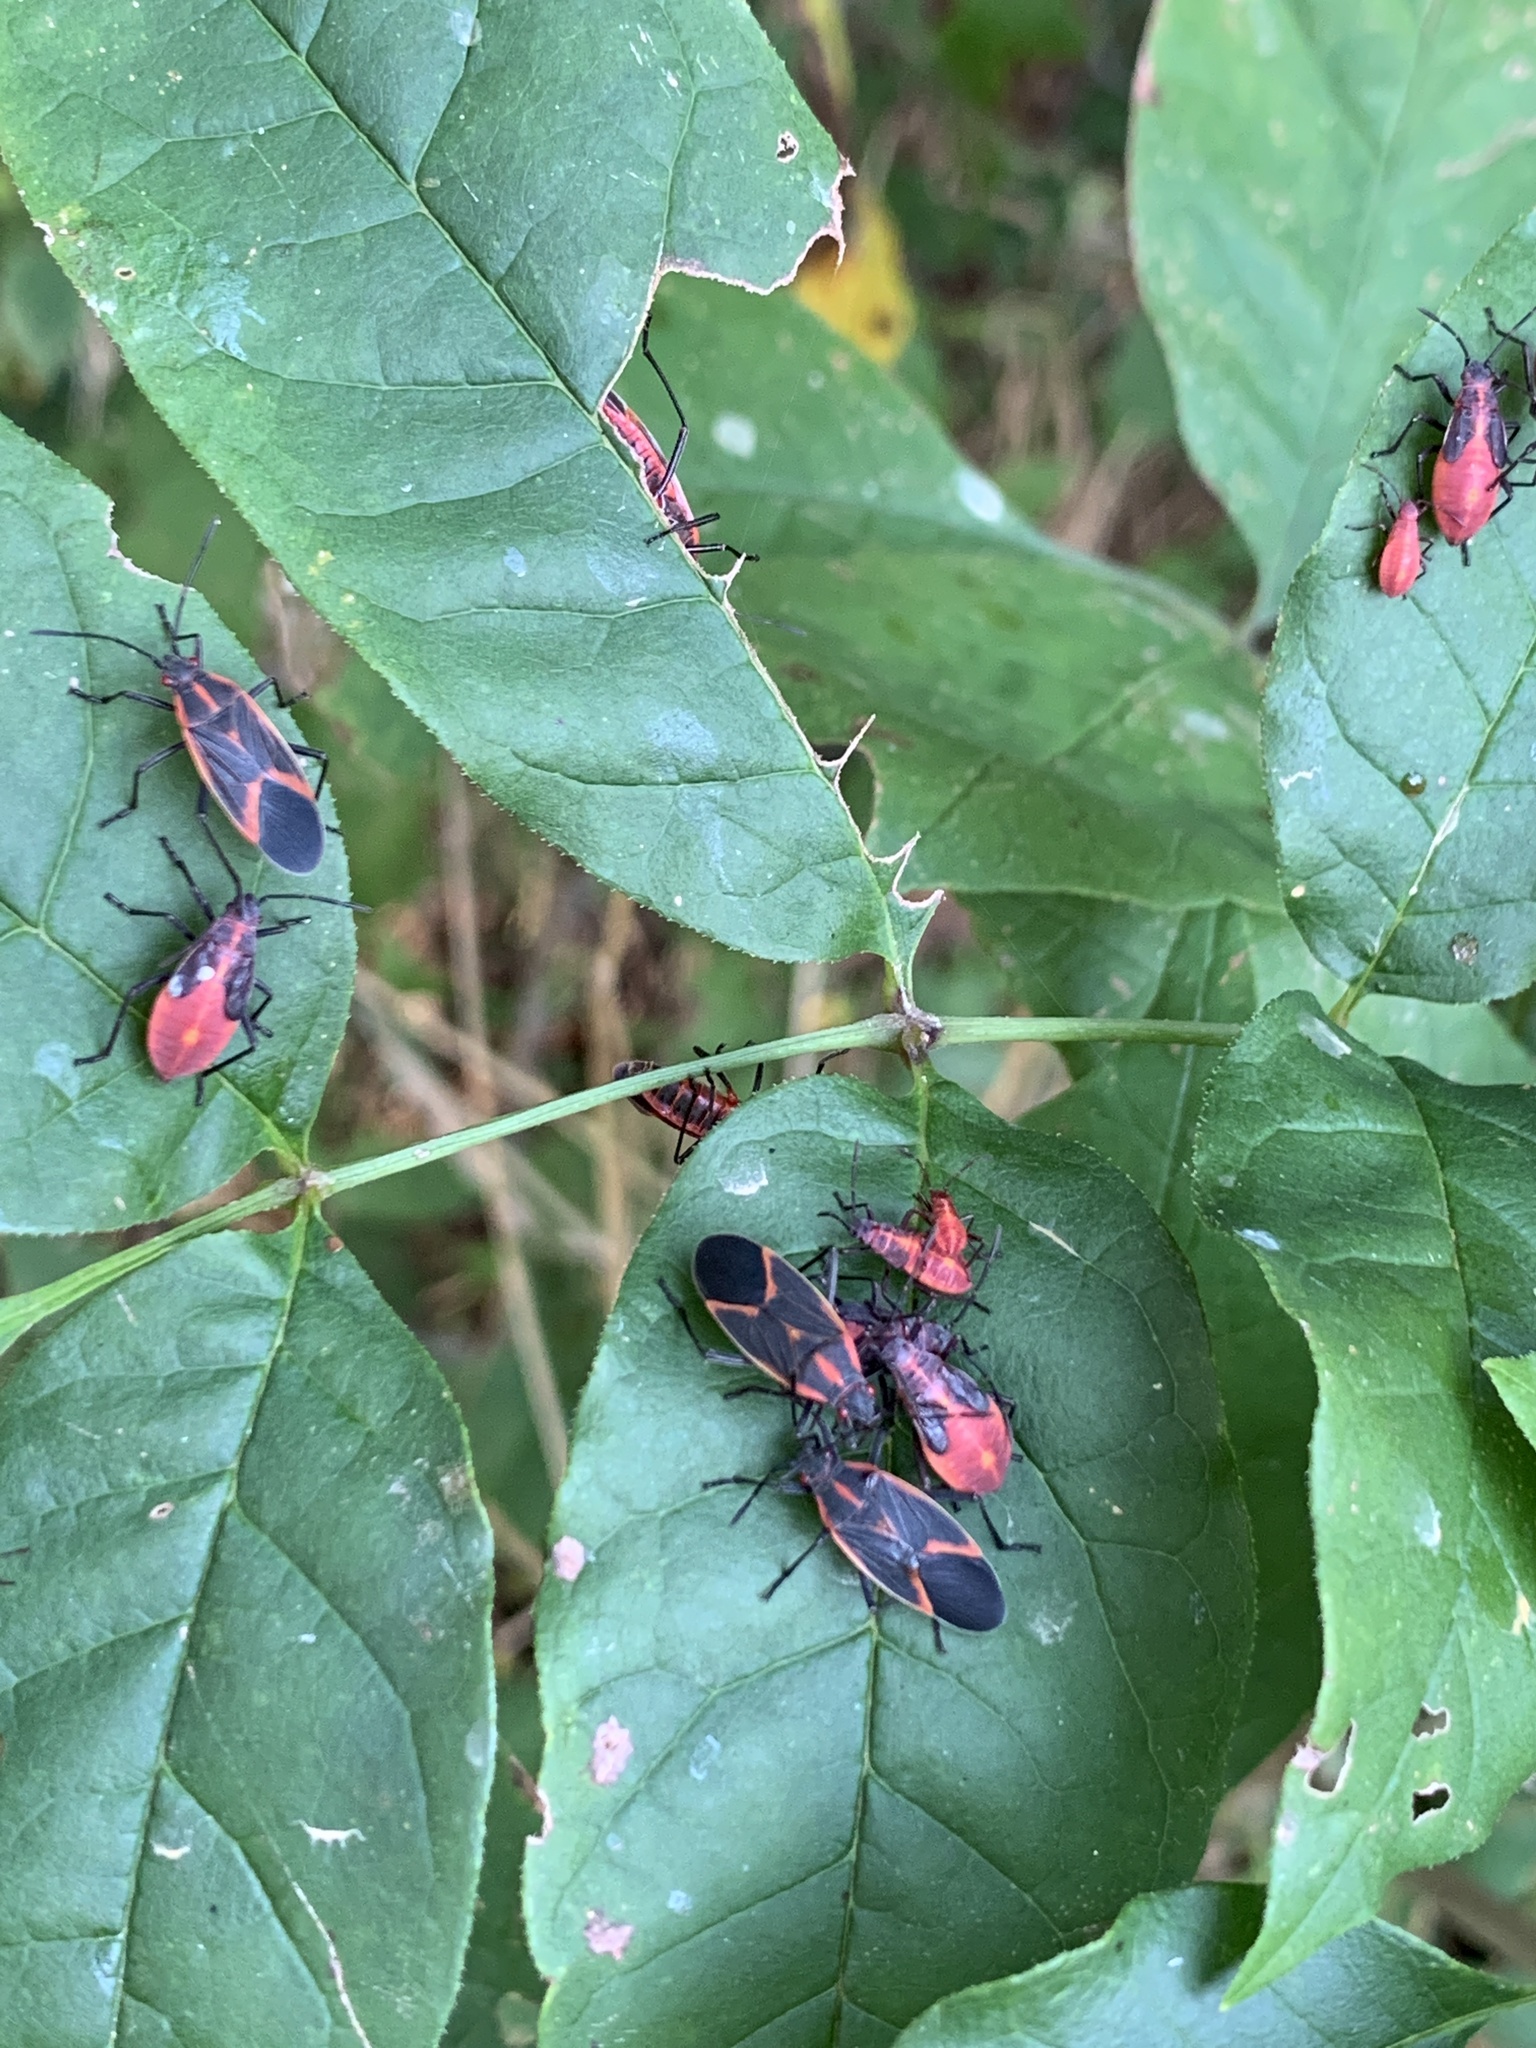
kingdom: Animalia
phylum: Arthropoda
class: Insecta
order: Hemiptera
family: Rhopalidae
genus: Boisea
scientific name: Boisea trivittata
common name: Boxelder bug
